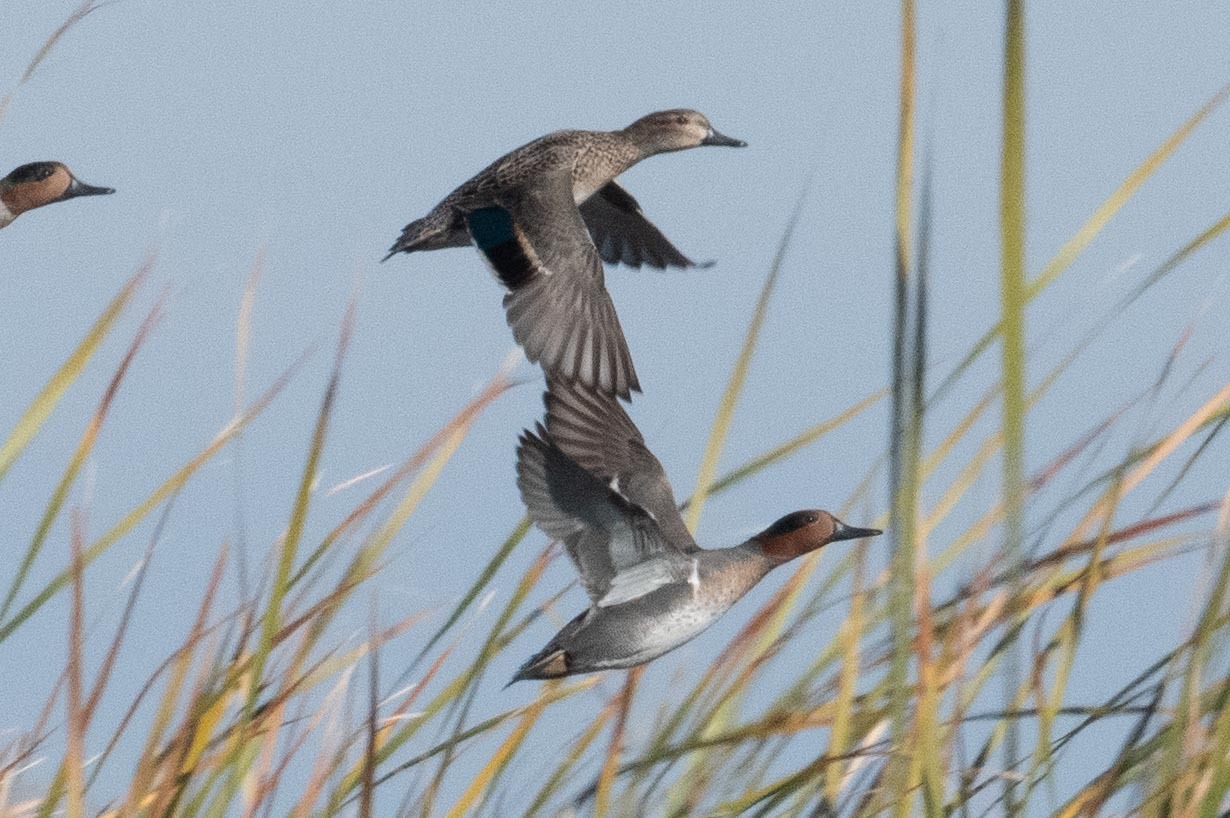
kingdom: Animalia
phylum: Chordata
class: Aves
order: Anseriformes
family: Anatidae
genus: Anas
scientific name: Anas crecca
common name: Eurasian teal
